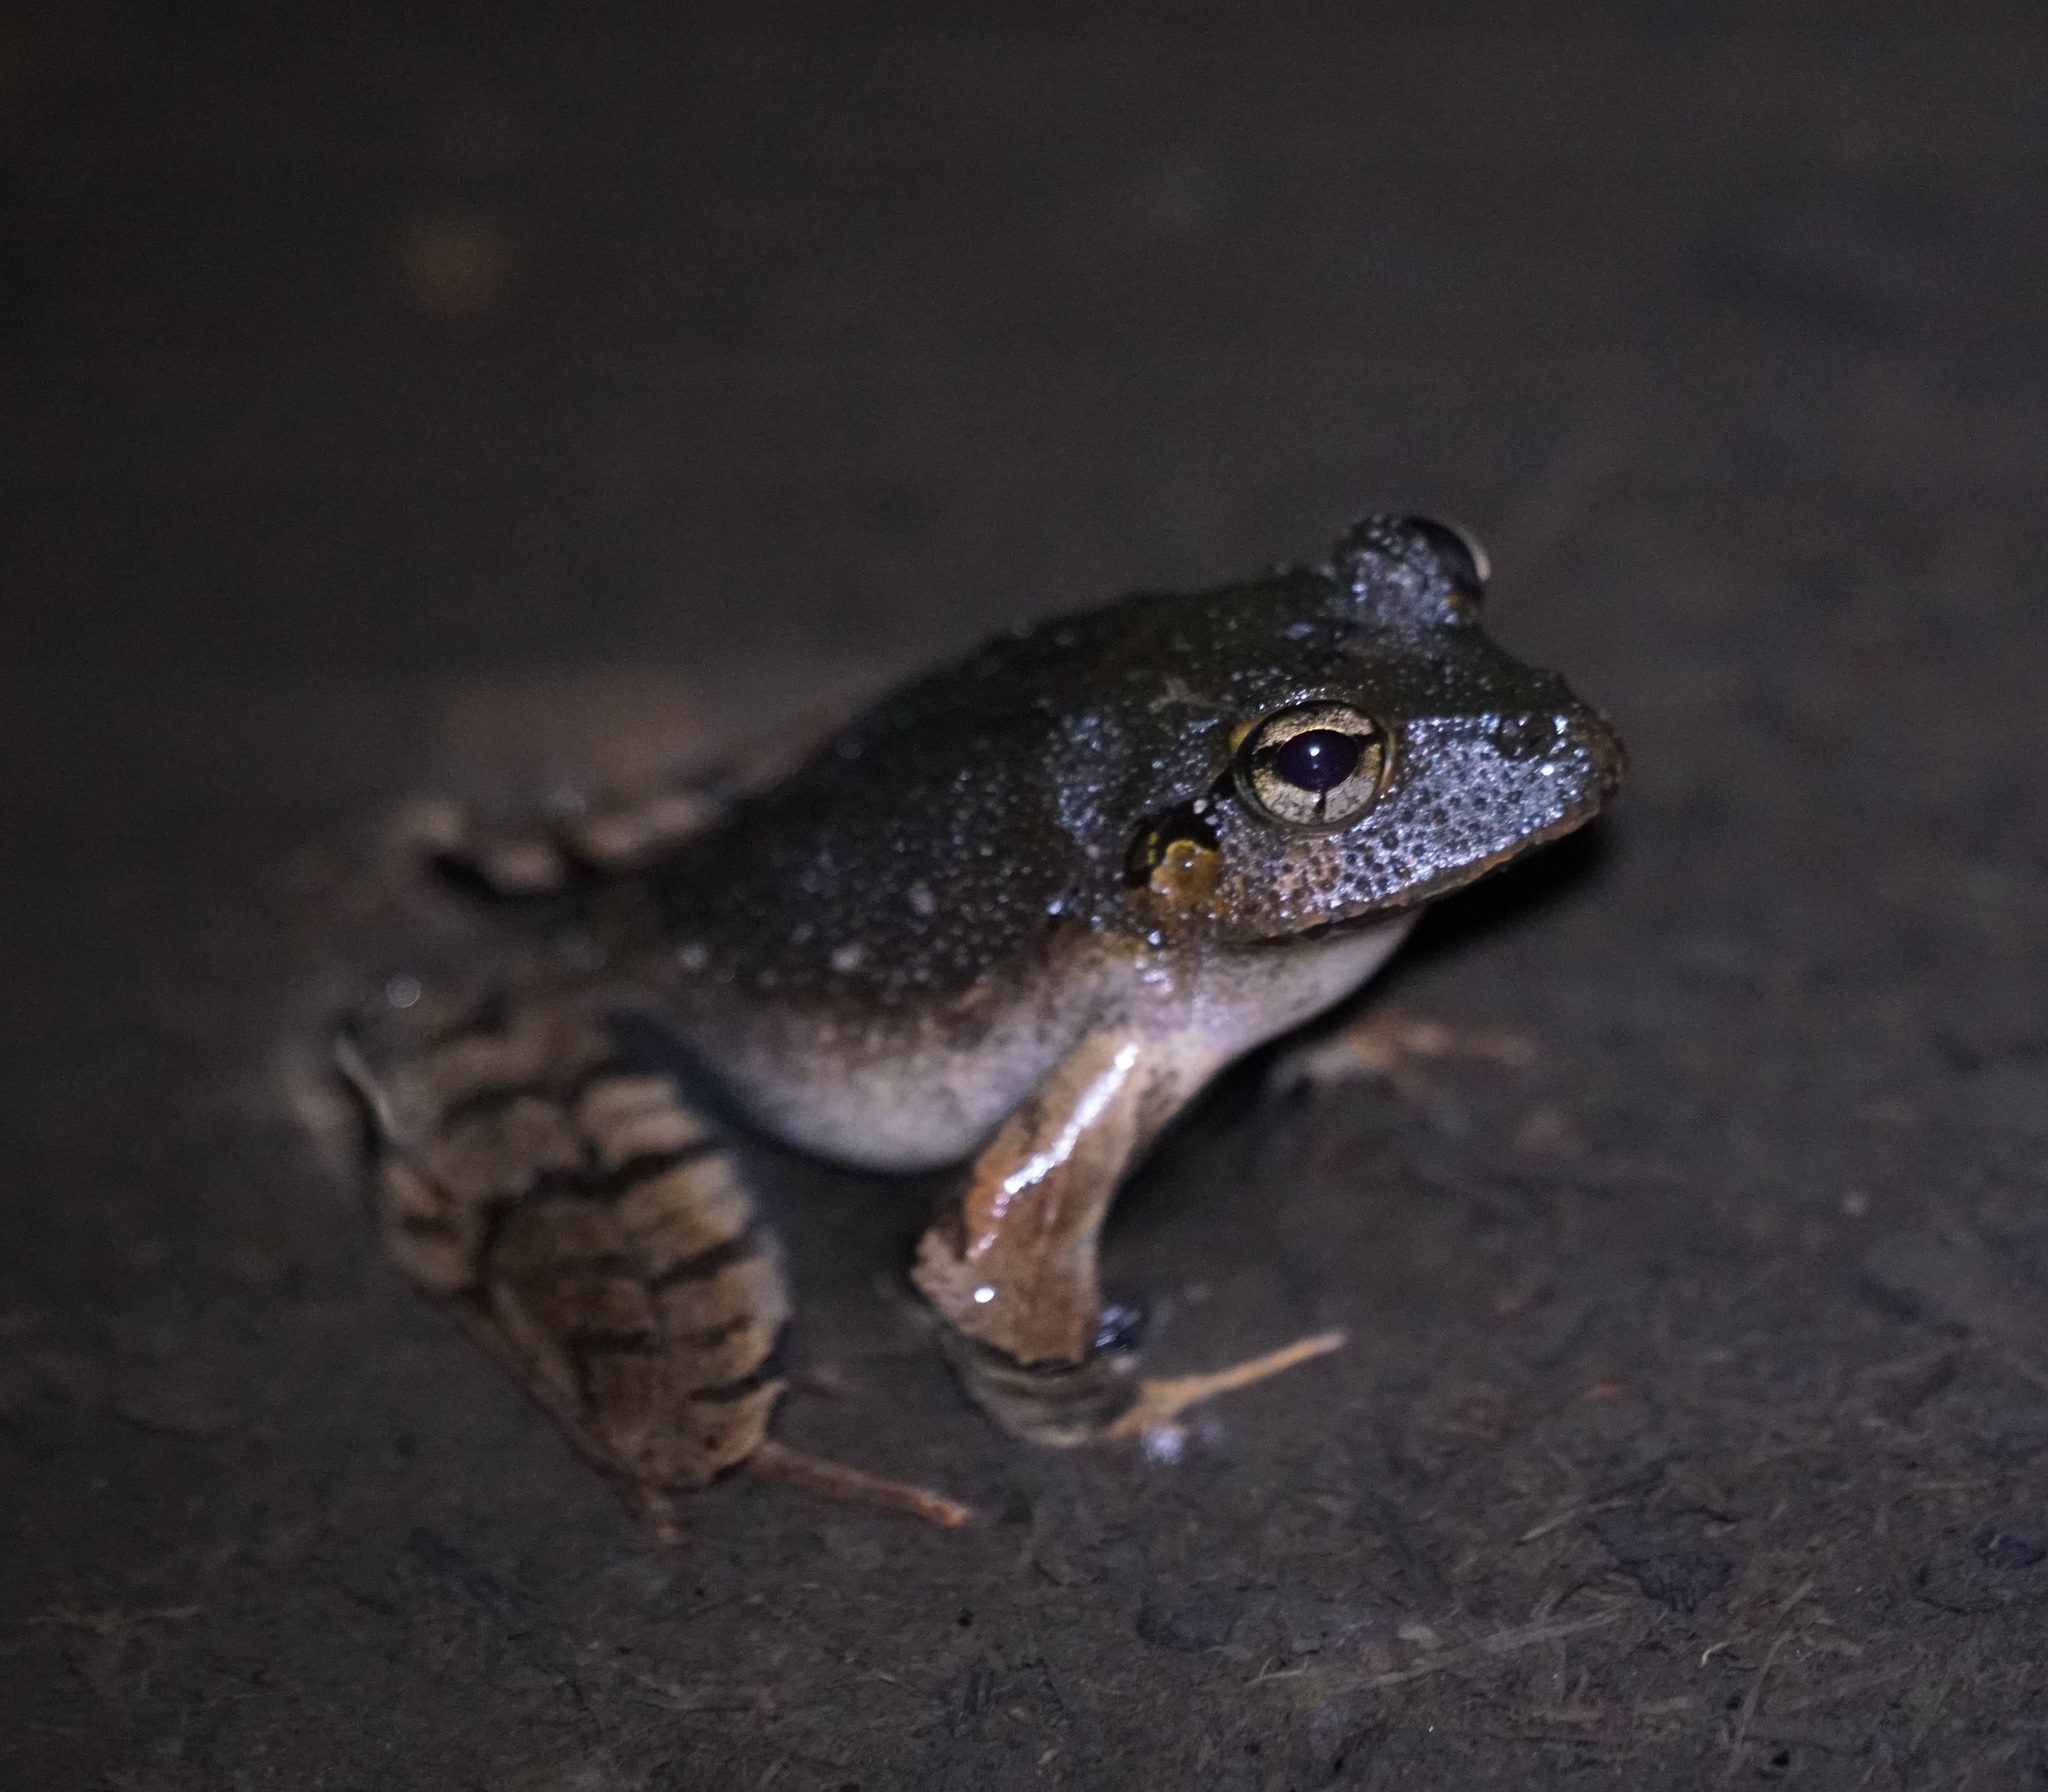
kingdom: Animalia
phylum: Chordata
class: Amphibia
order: Anura
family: Limnodynastidae
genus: Platyplectrum
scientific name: Platyplectrum
